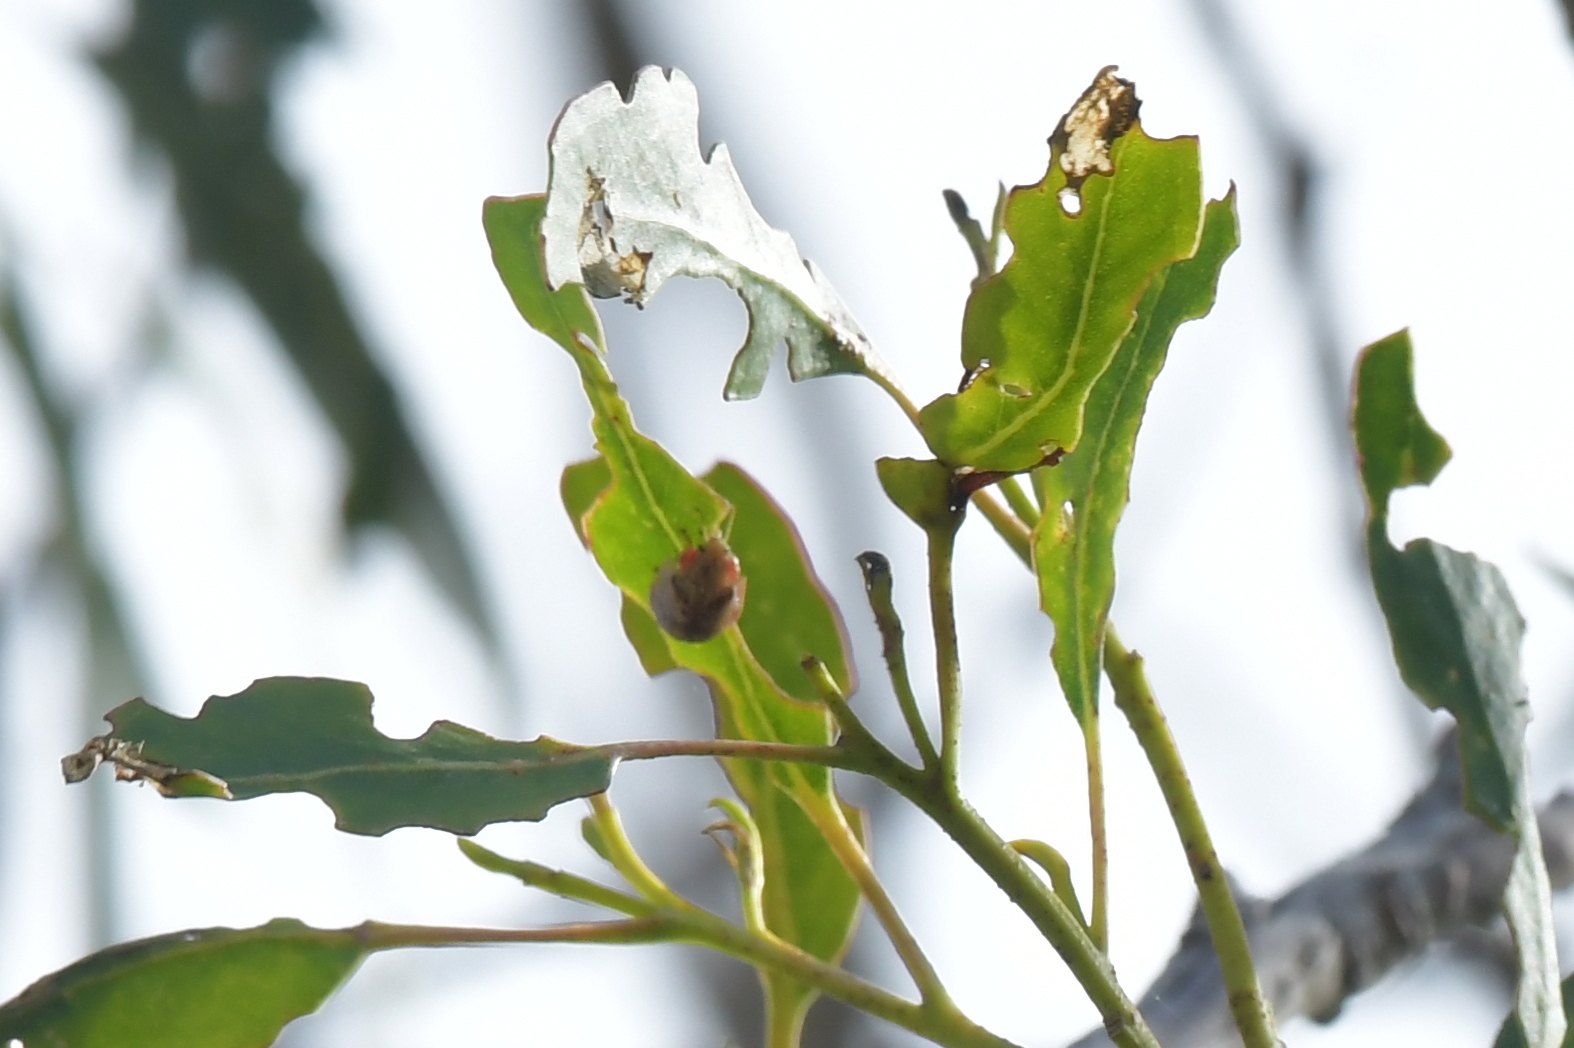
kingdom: Animalia
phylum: Arthropoda
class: Insecta
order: Coleoptera
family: Chrysomelidae
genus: Paropsis
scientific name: Paropsis charybdis
